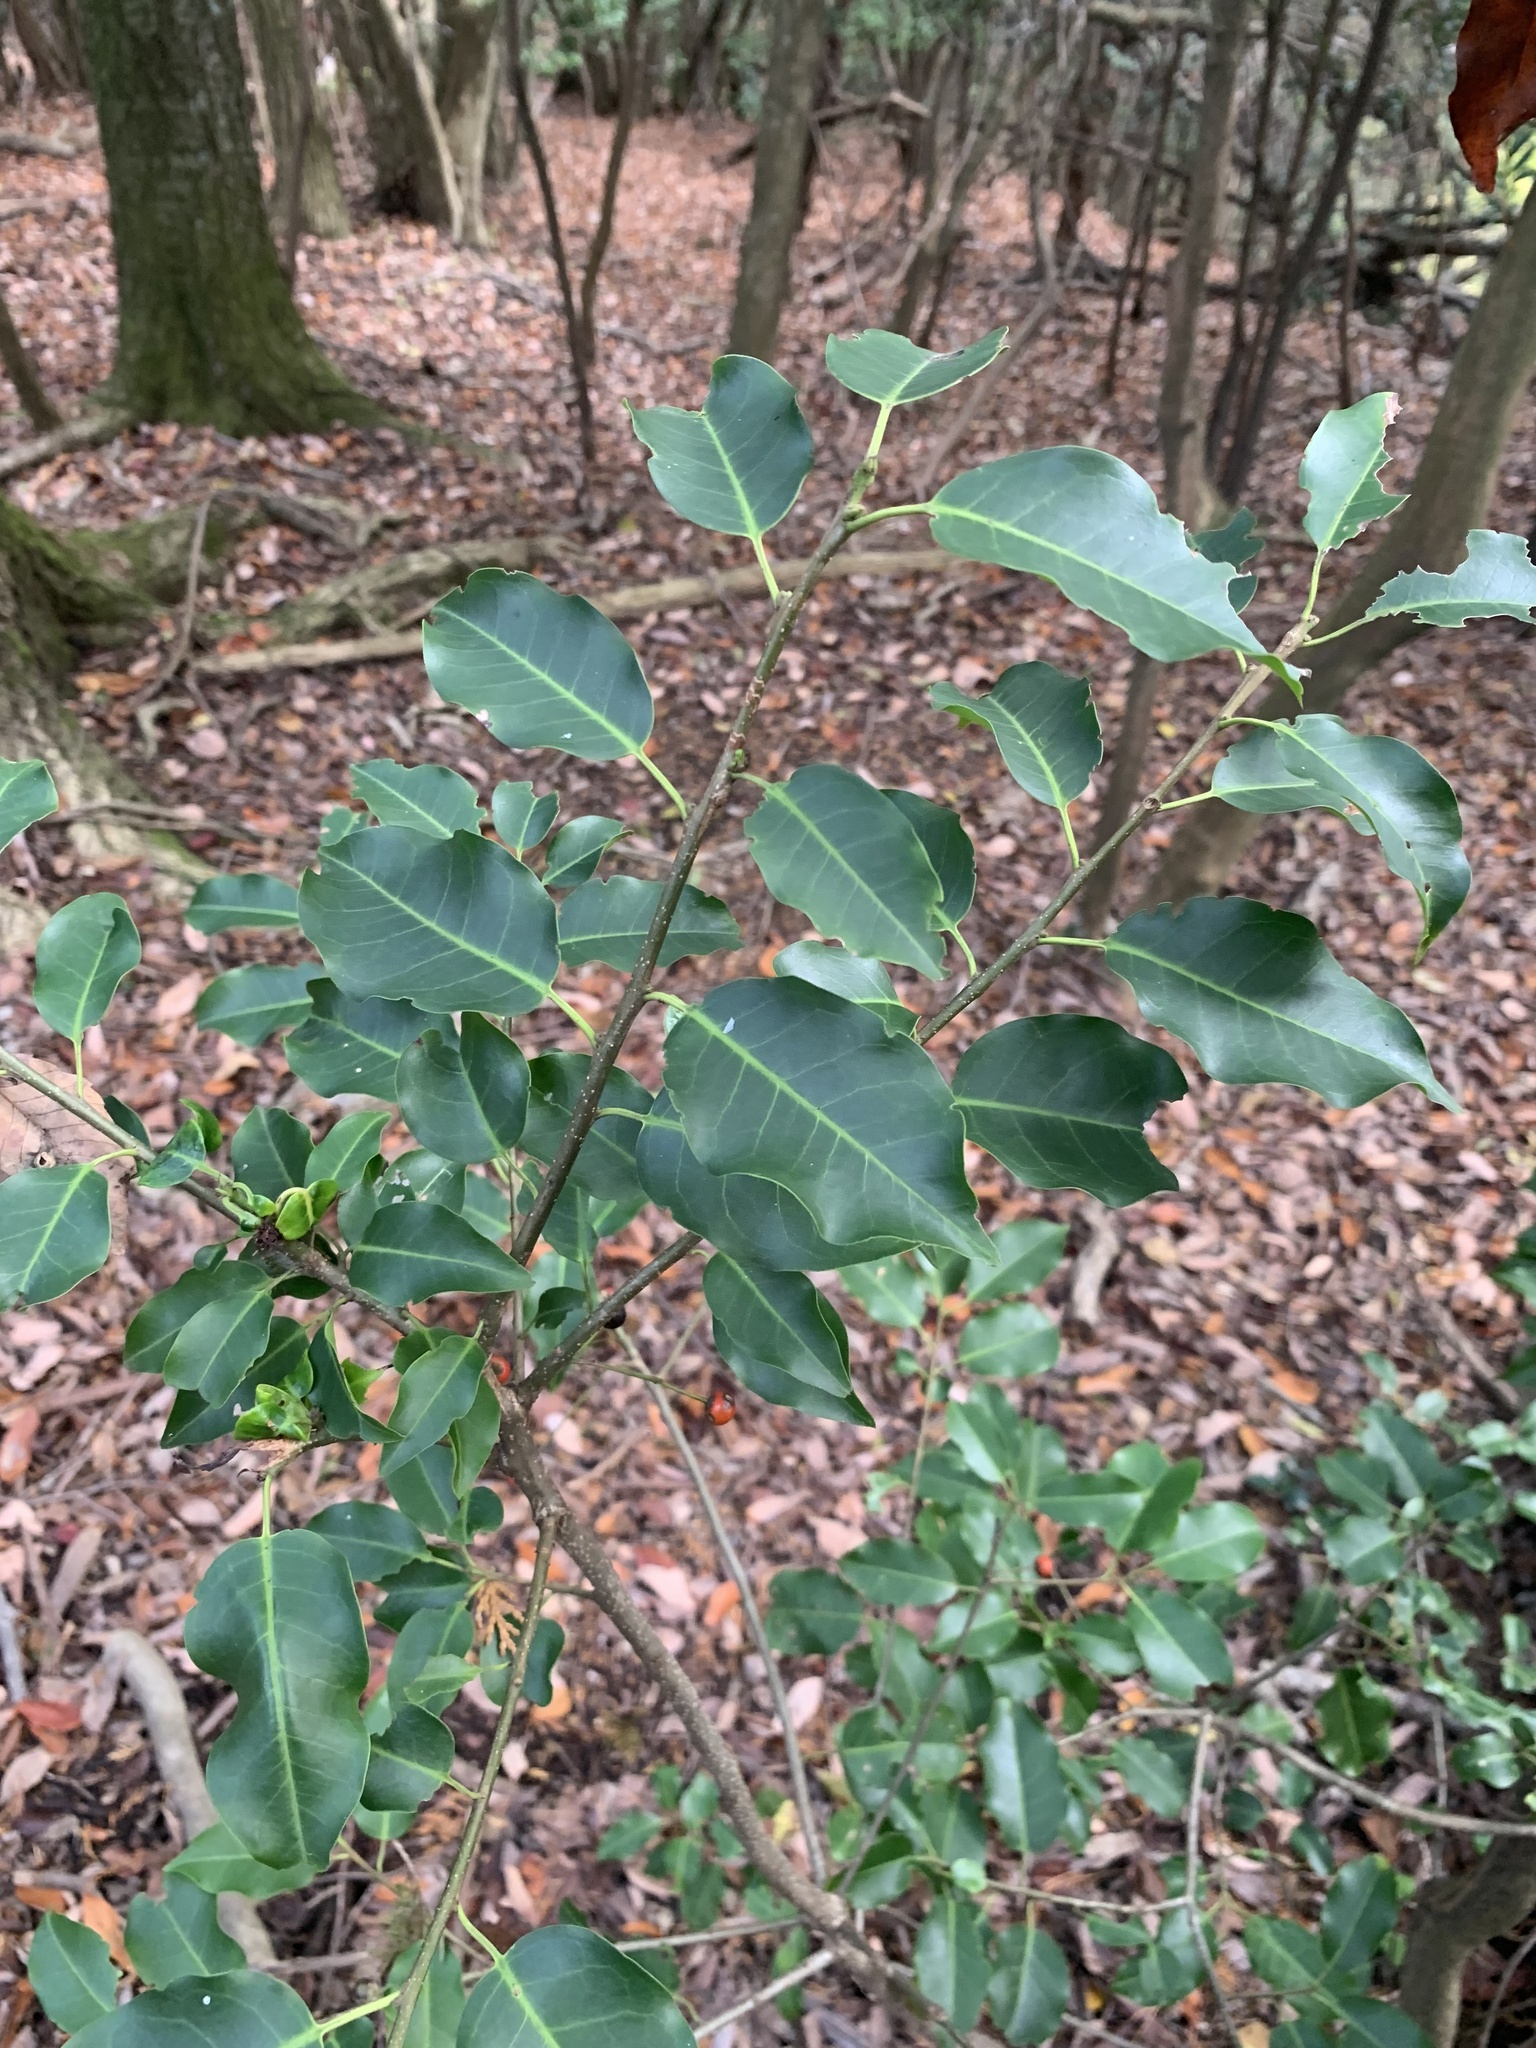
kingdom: Plantae
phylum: Tracheophyta
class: Magnoliopsida
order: Aquifoliales
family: Aquifoliaceae
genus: Ilex
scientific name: Ilex pedunculosa
